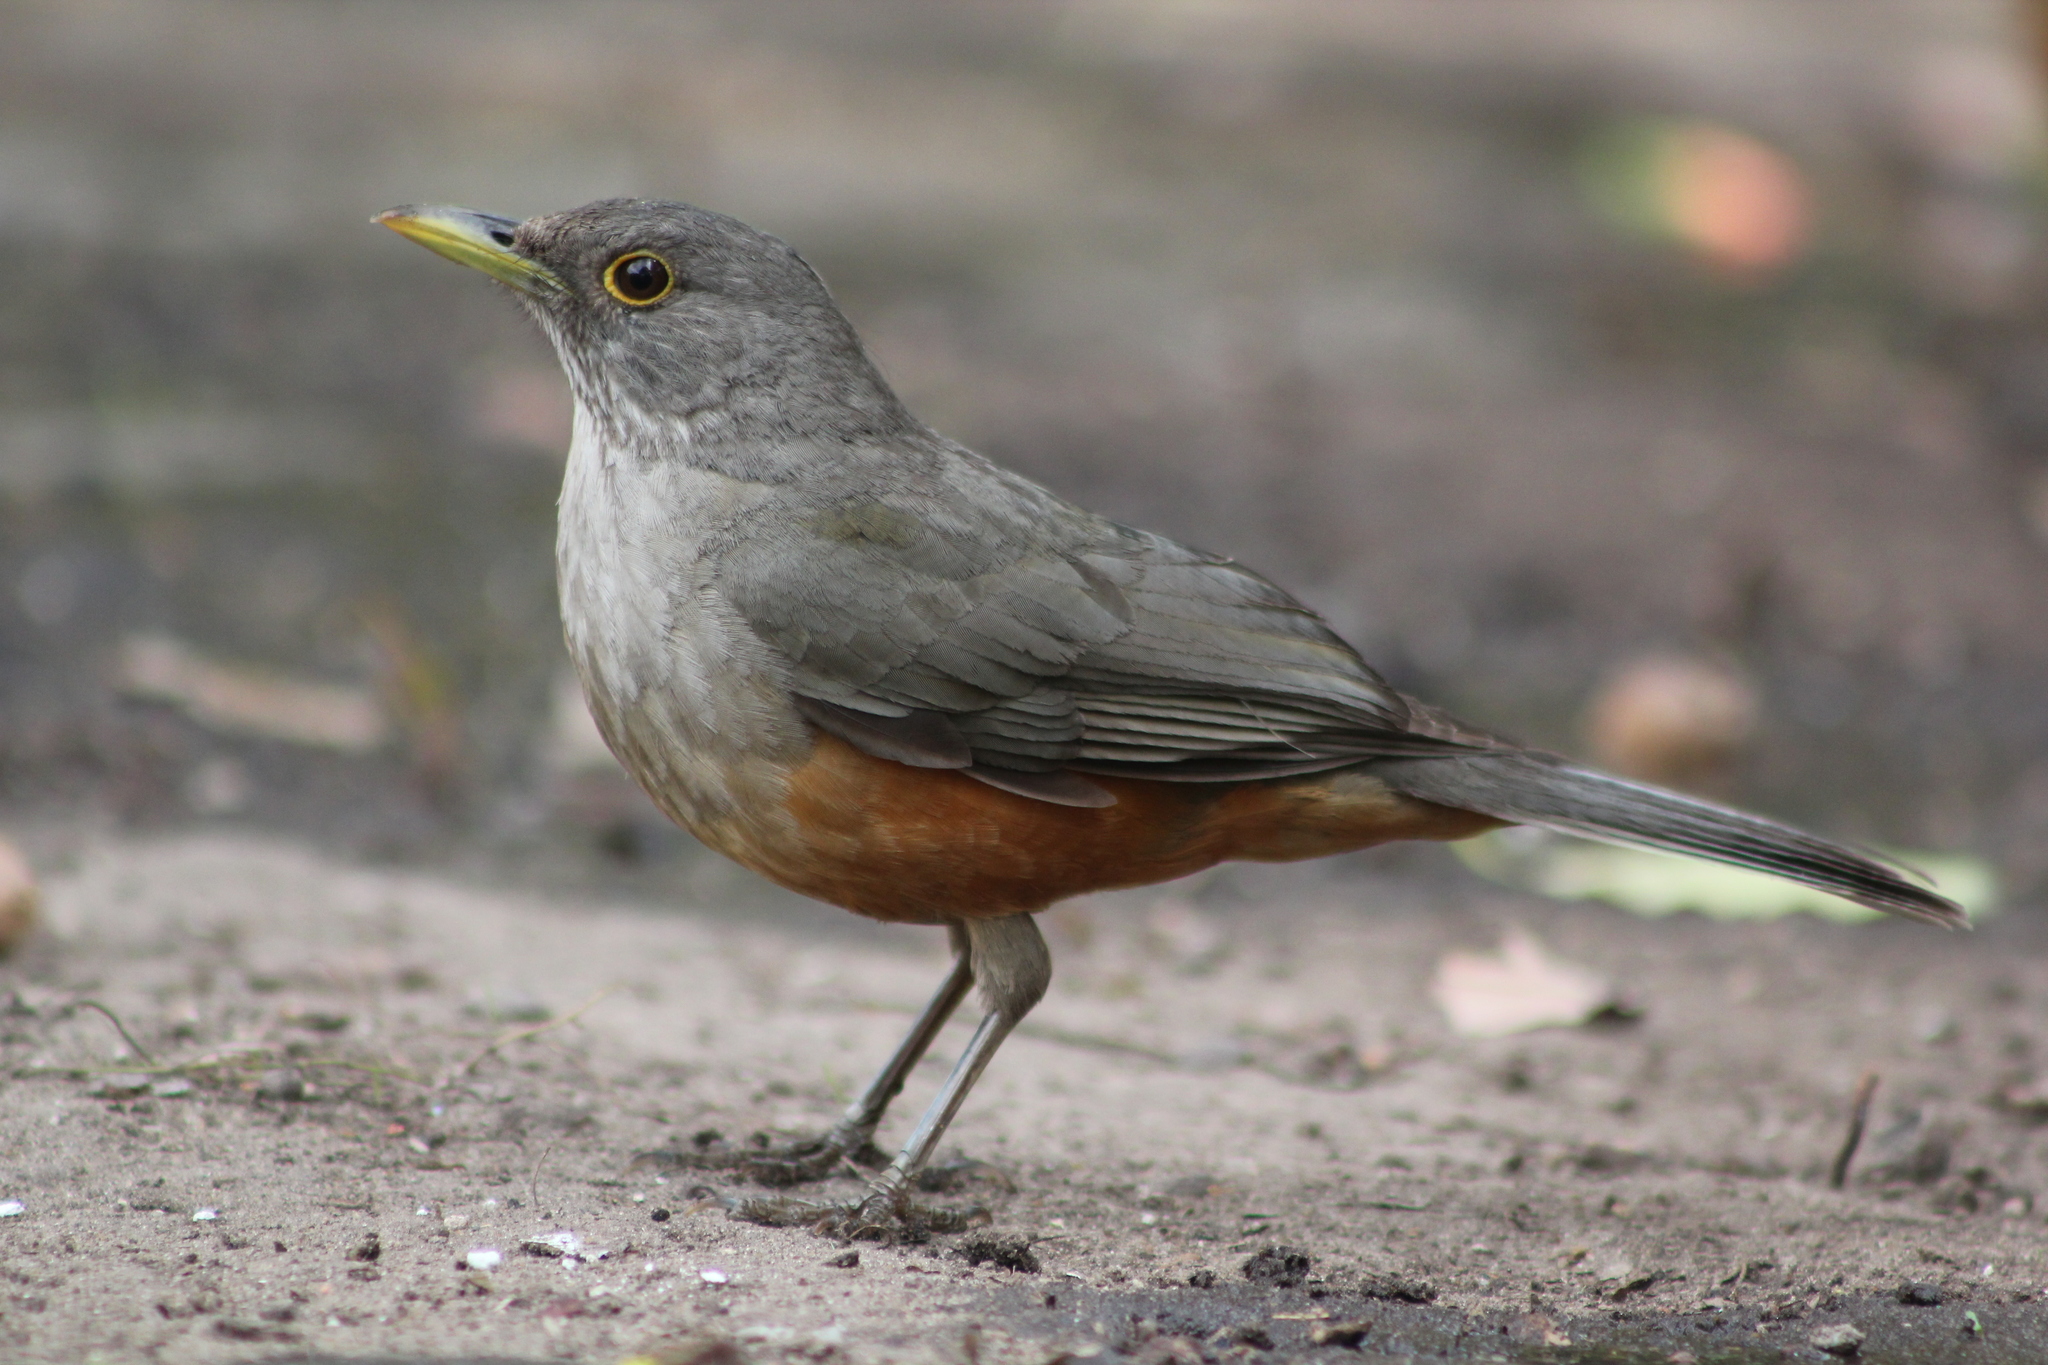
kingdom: Animalia
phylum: Chordata
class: Aves
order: Passeriformes
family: Turdidae
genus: Turdus
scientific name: Turdus rufiventris
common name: Rufous-bellied thrush
